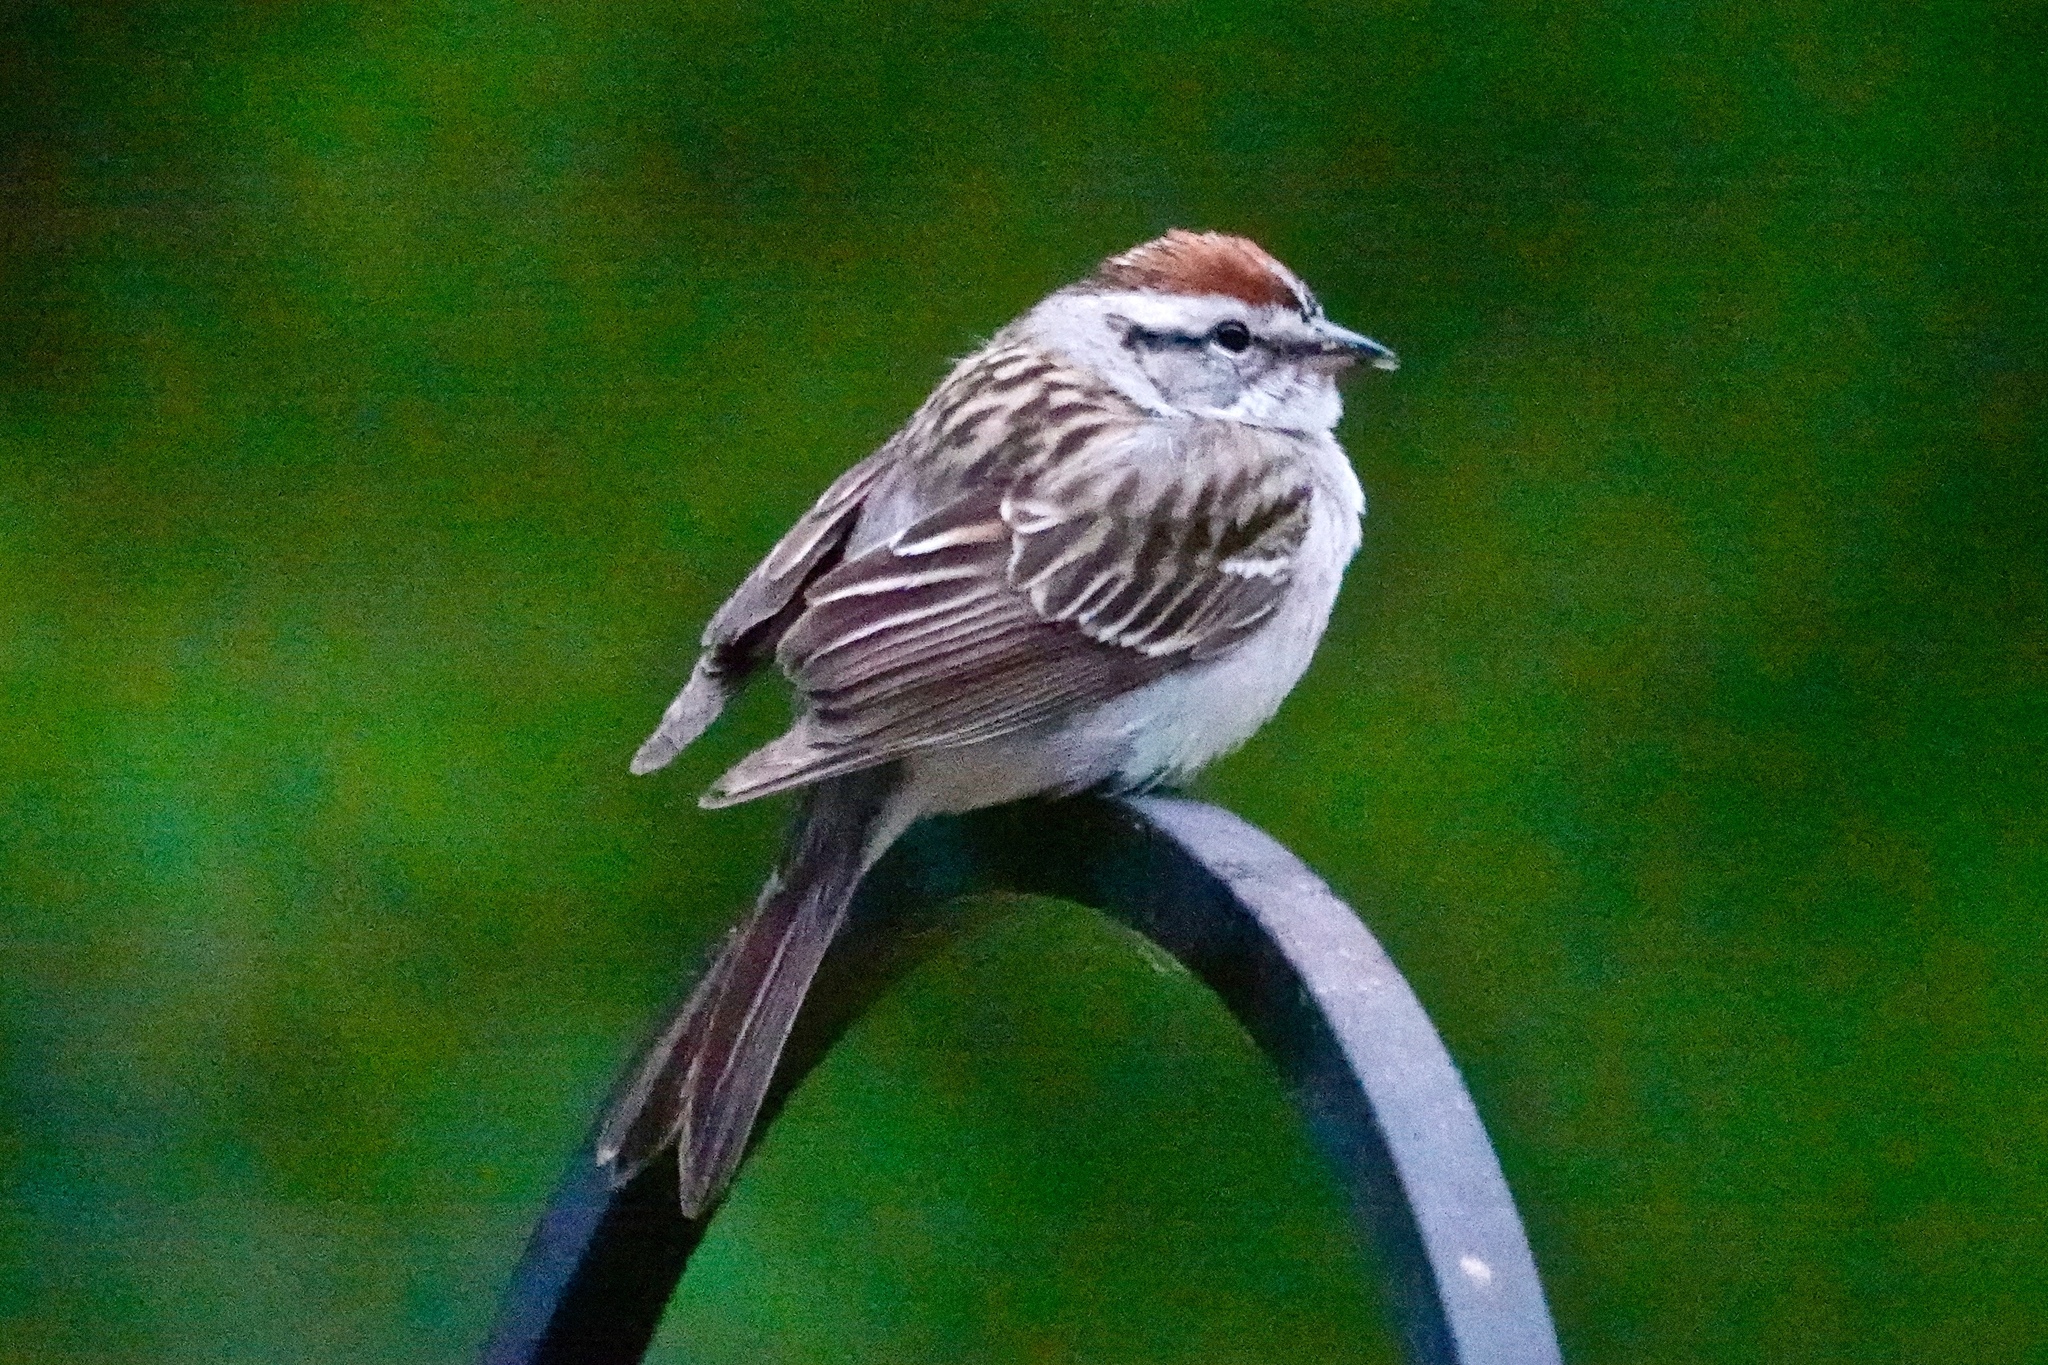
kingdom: Animalia
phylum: Chordata
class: Aves
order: Passeriformes
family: Passerellidae
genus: Spizella
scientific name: Spizella passerina
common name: Chipping sparrow
